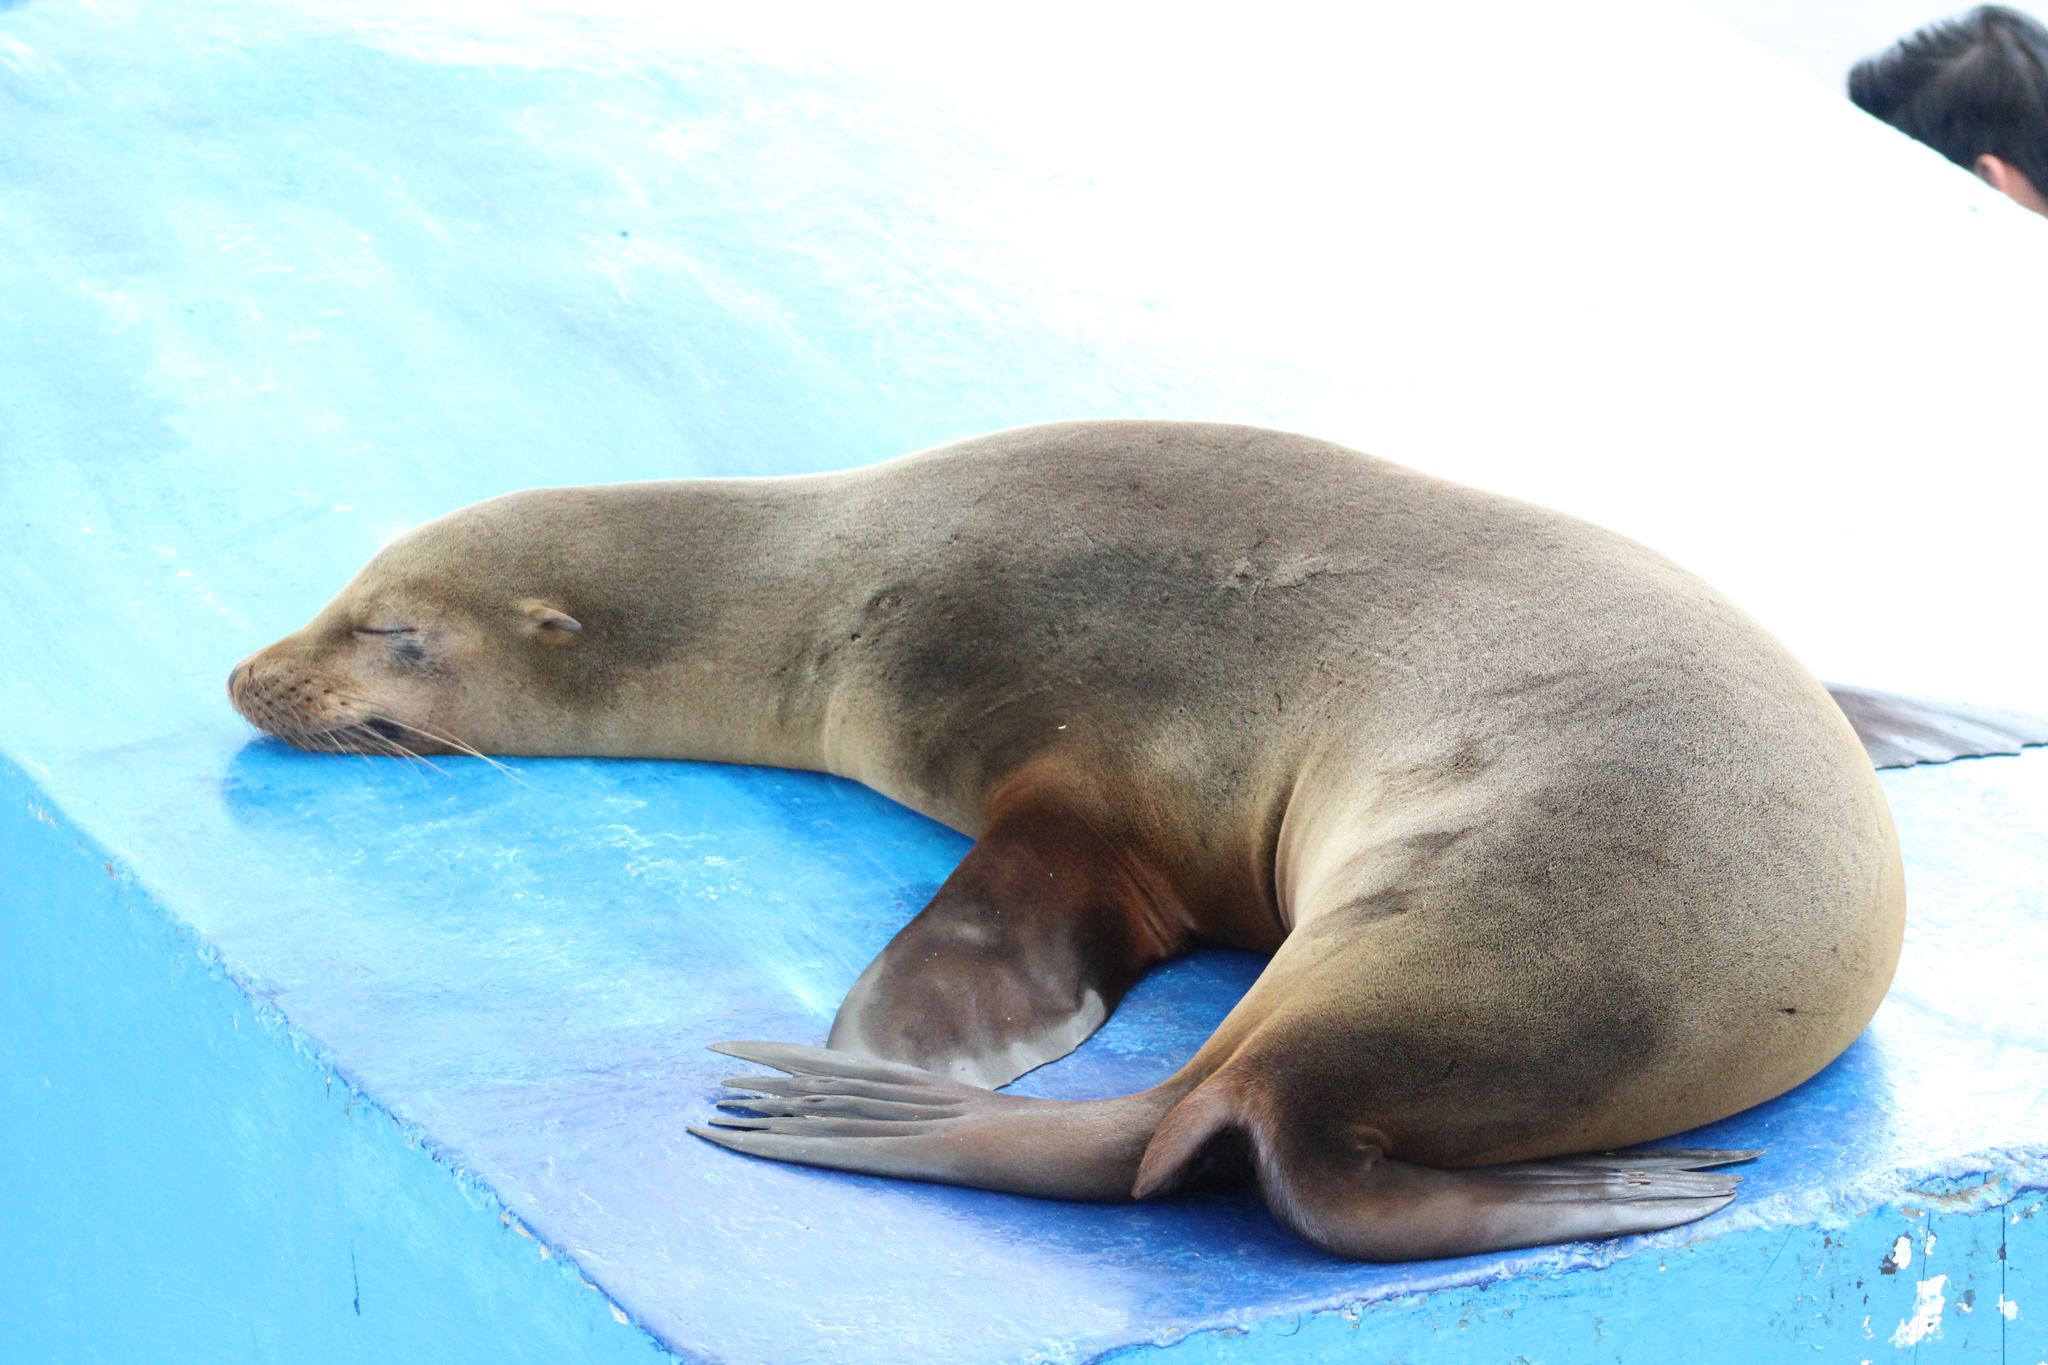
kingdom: Animalia
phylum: Chordata
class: Mammalia
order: Carnivora
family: Otariidae
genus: Zalophus
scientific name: Zalophus wollebaeki
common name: Galapagos sea lion
